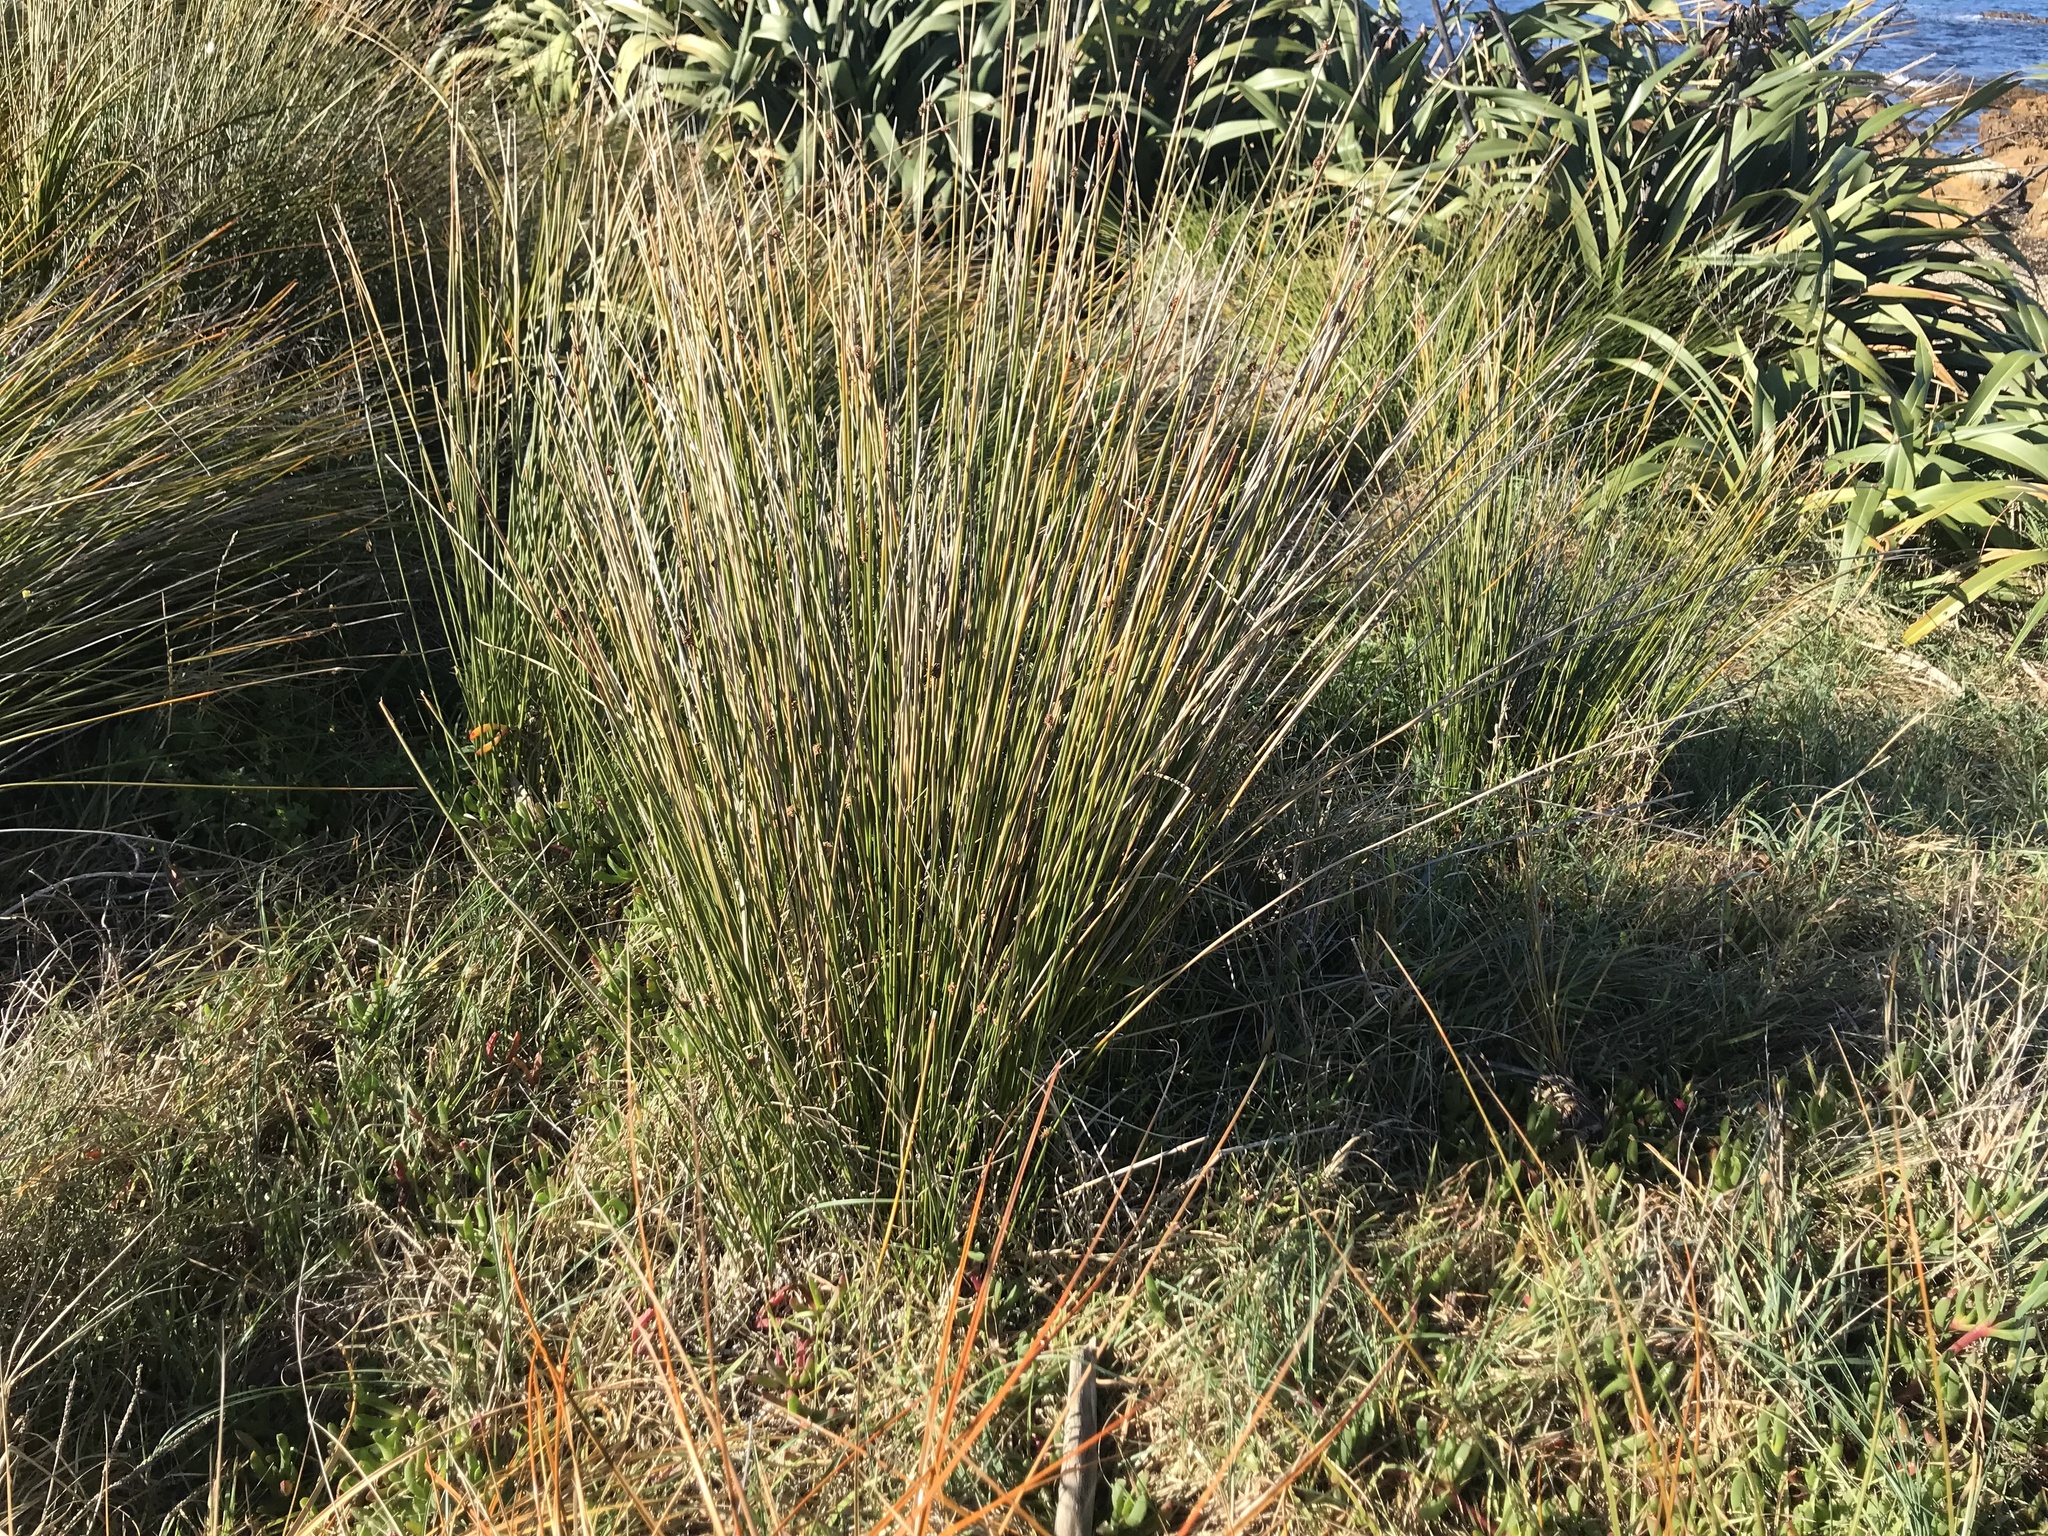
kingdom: Plantae
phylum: Tracheophyta
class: Liliopsida
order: Poales
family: Cyperaceae
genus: Ficinia
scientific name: Ficinia nodosa
